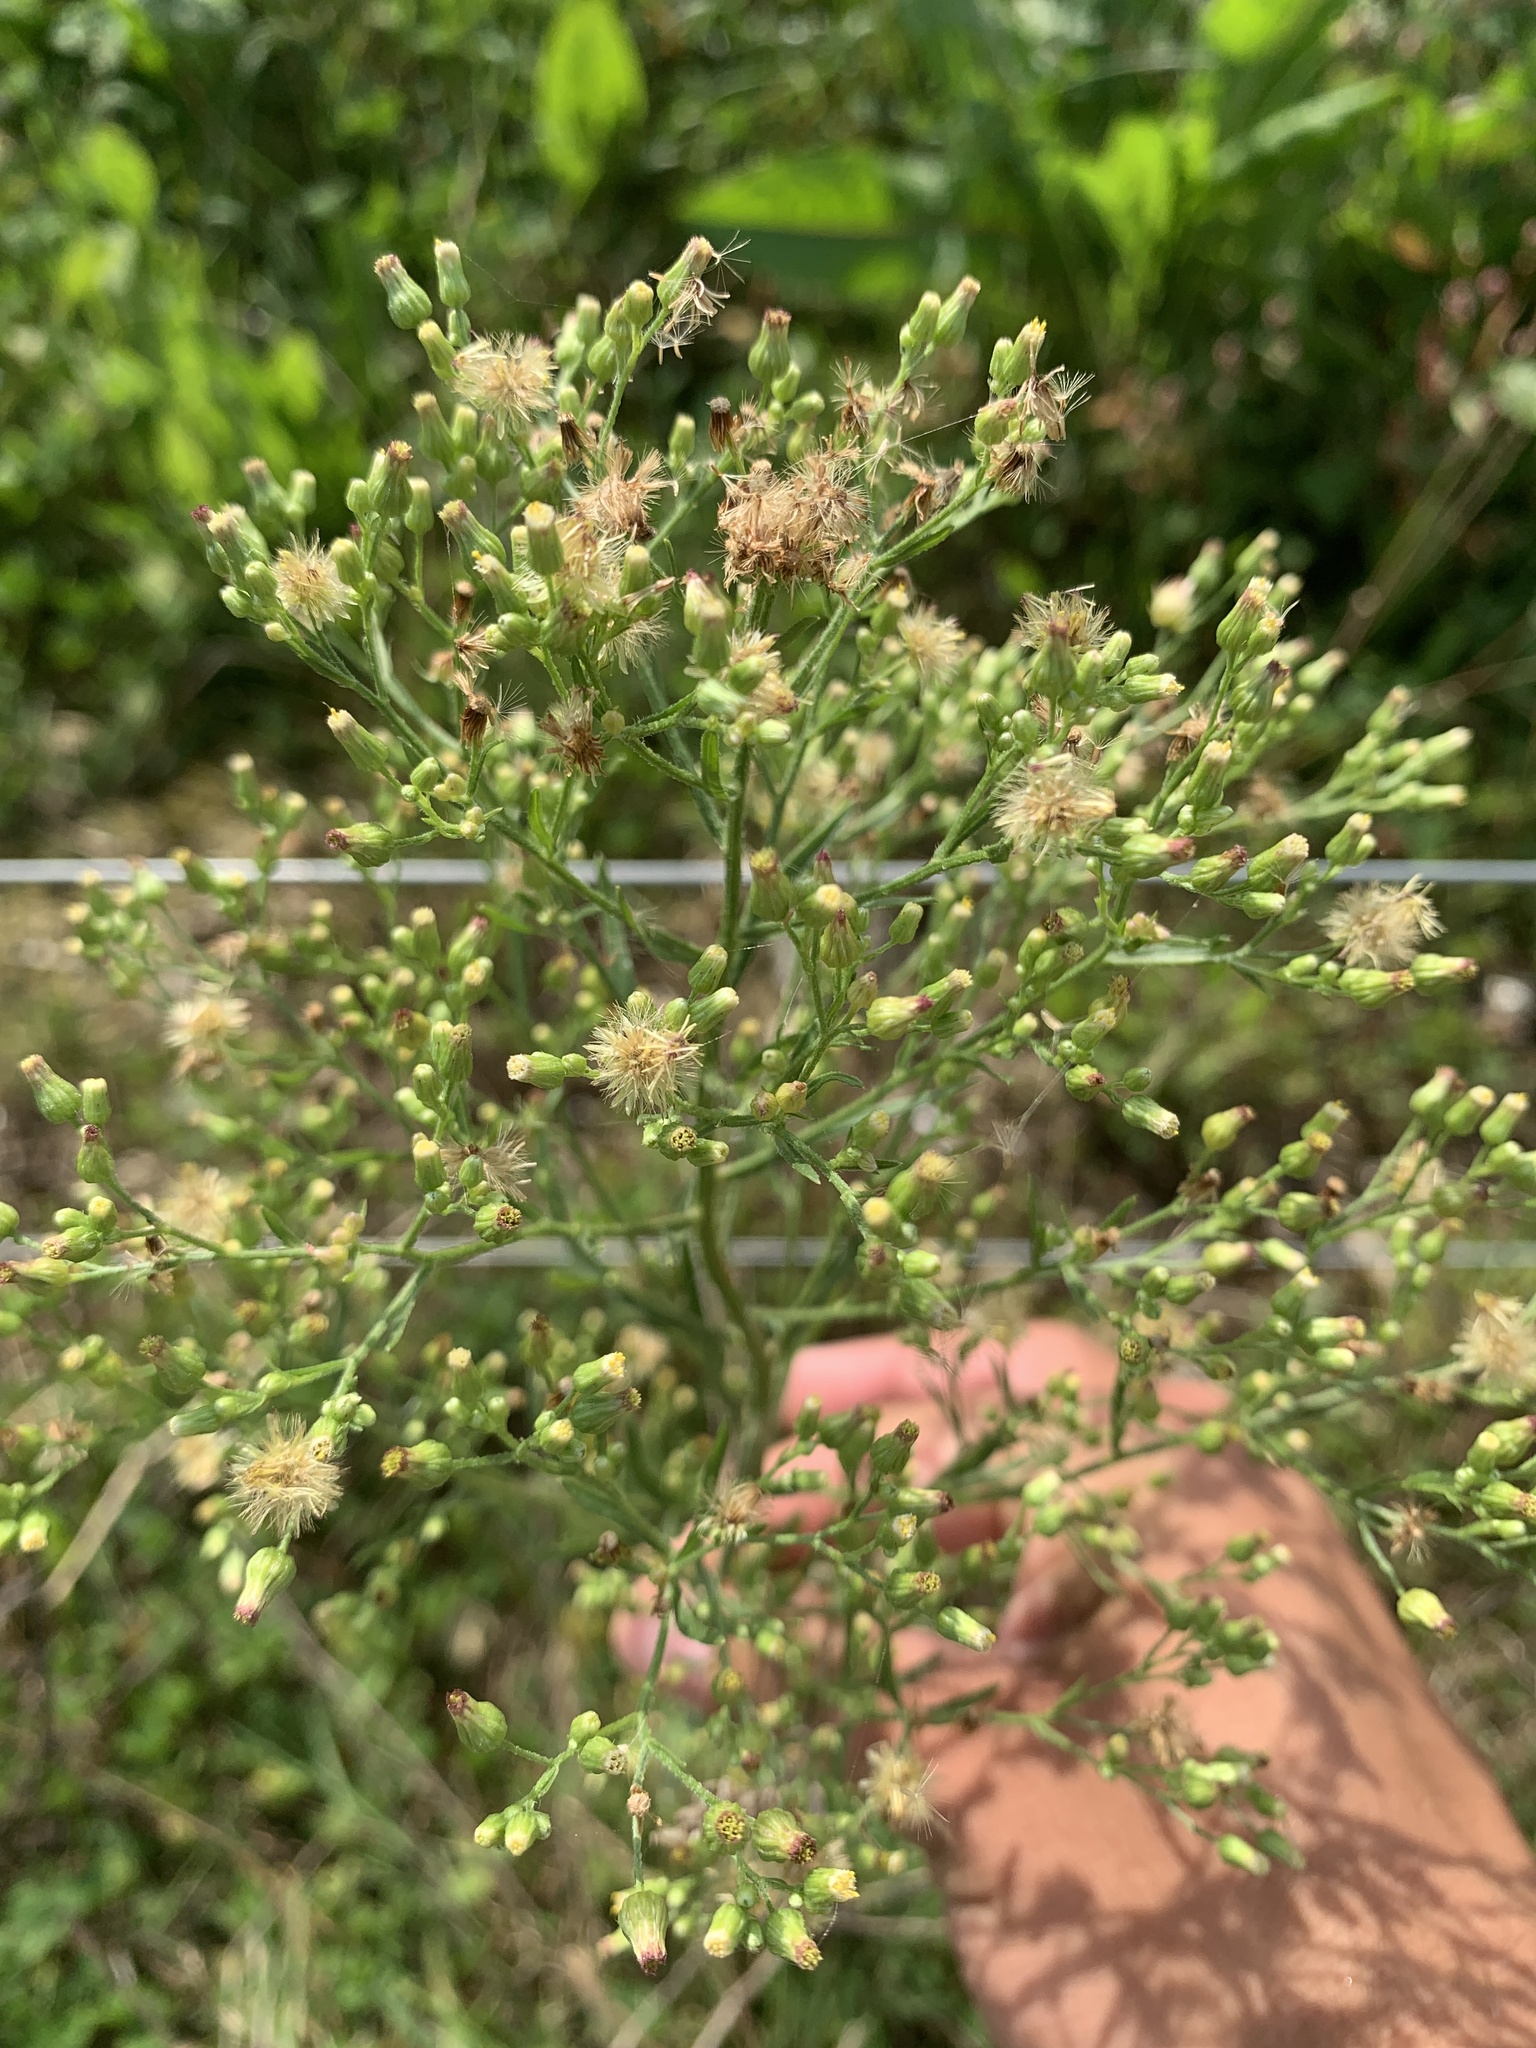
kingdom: Plantae
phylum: Tracheophyta
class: Magnoliopsida
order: Asterales
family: Asteraceae
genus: Erigeron
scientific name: Erigeron canadensis
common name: Canadian fleabane
